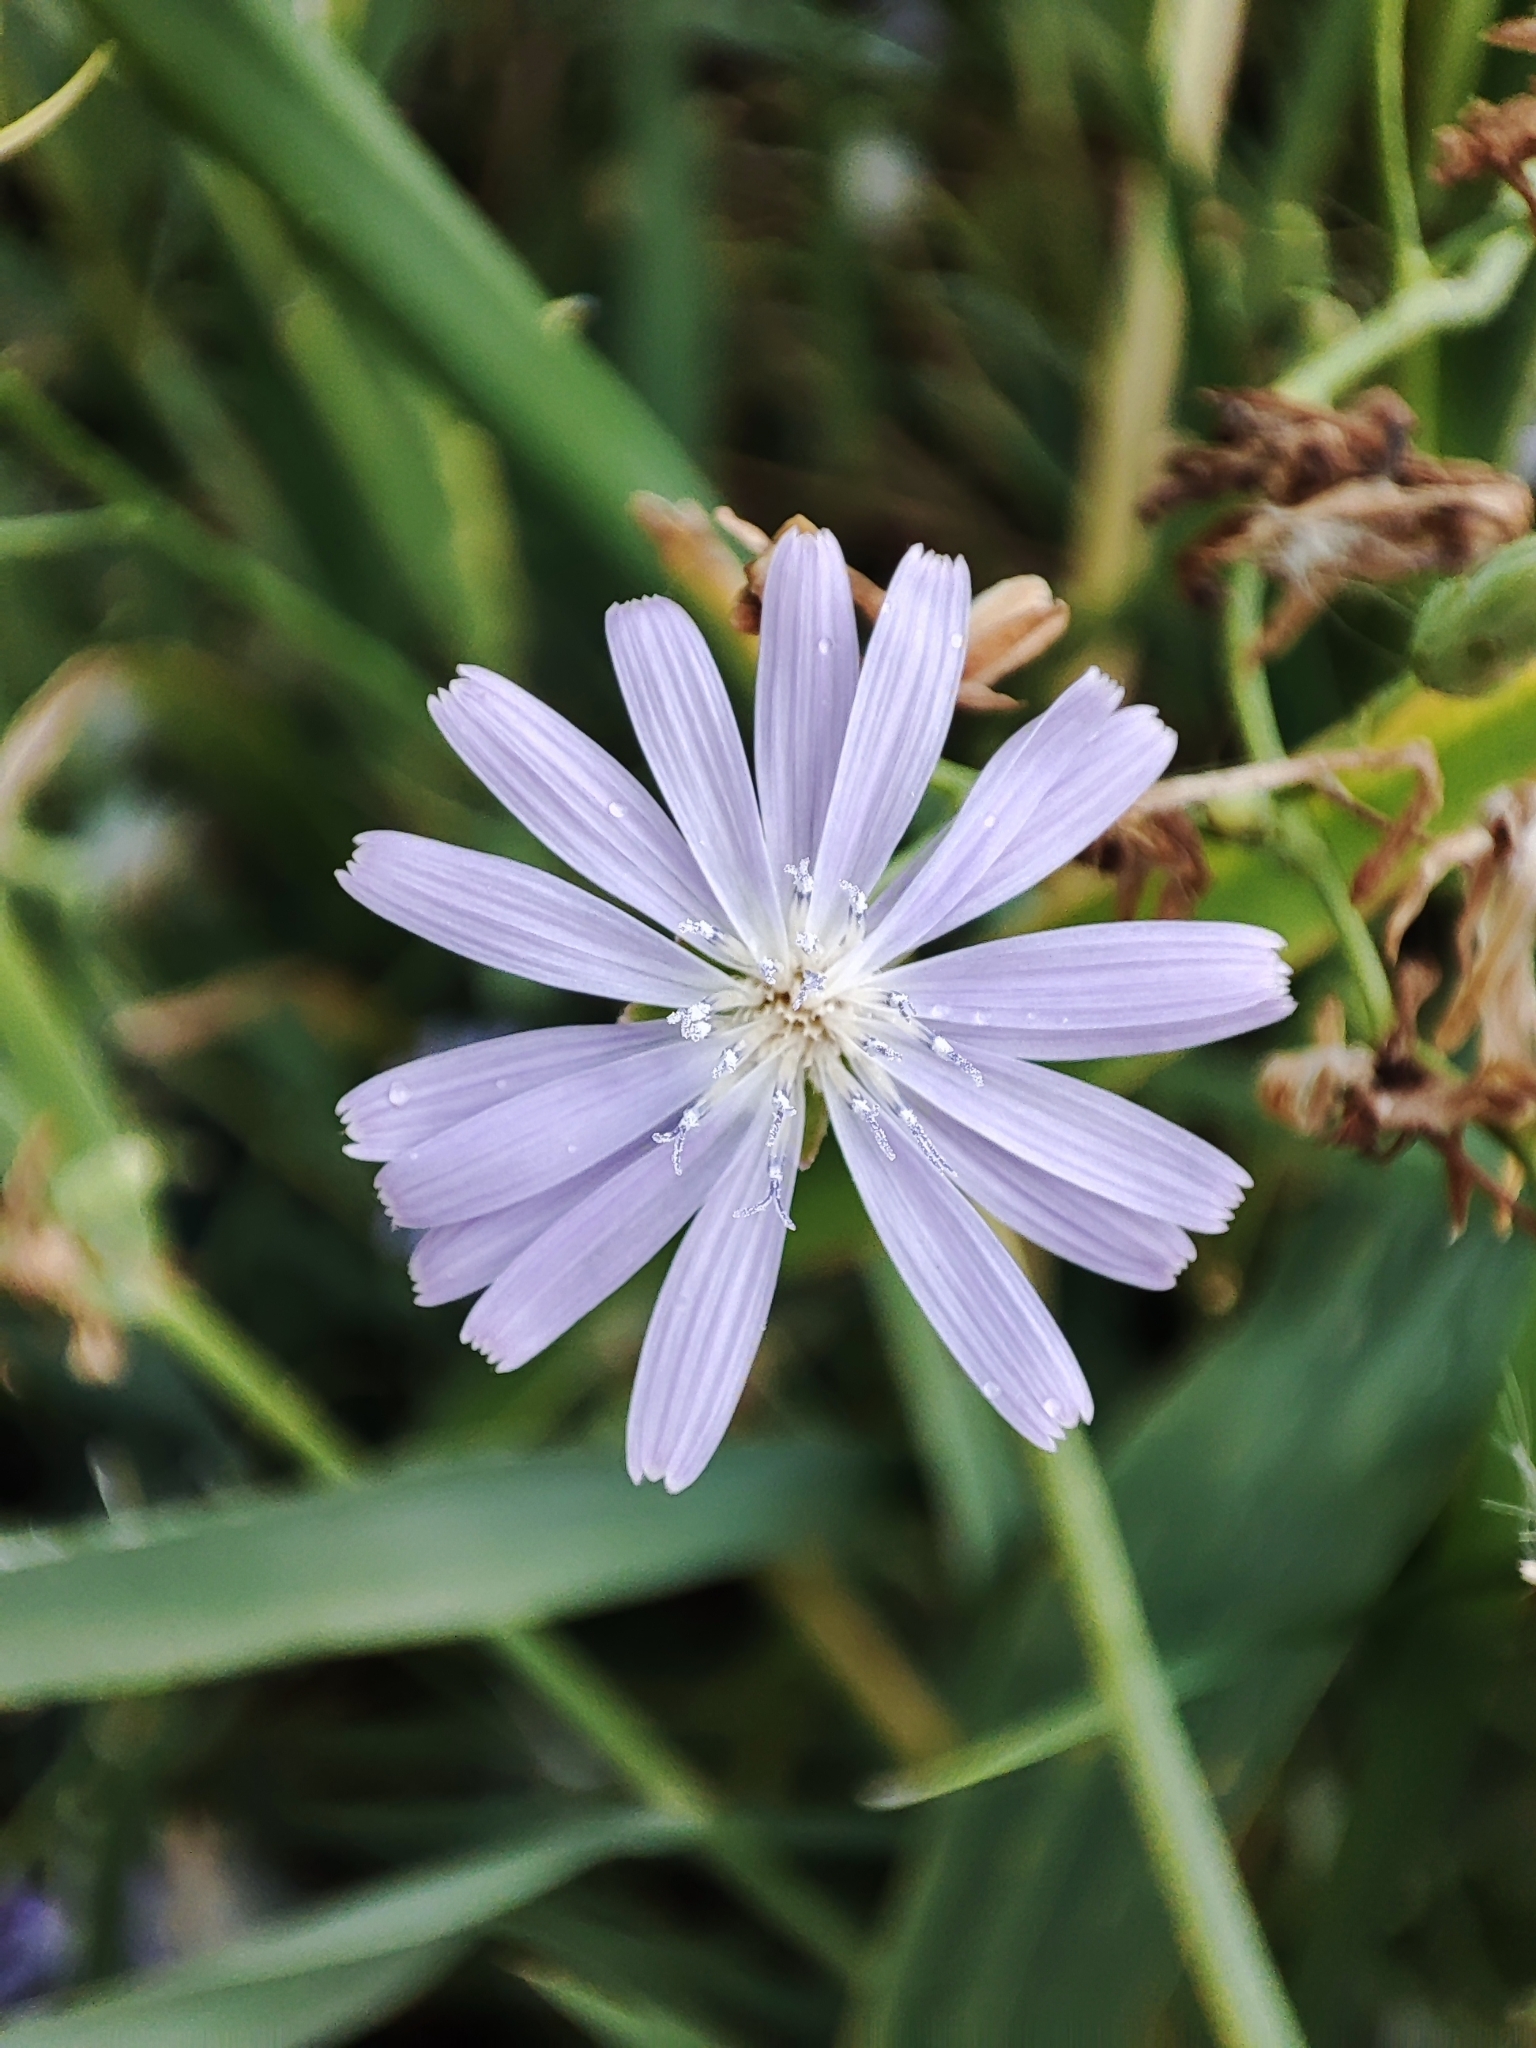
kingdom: Plantae
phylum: Tracheophyta
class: Magnoliopsida
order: Asterales
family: Asteraceae
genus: Lactuca
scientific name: Lactuca tatarica
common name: Blue lettuce
